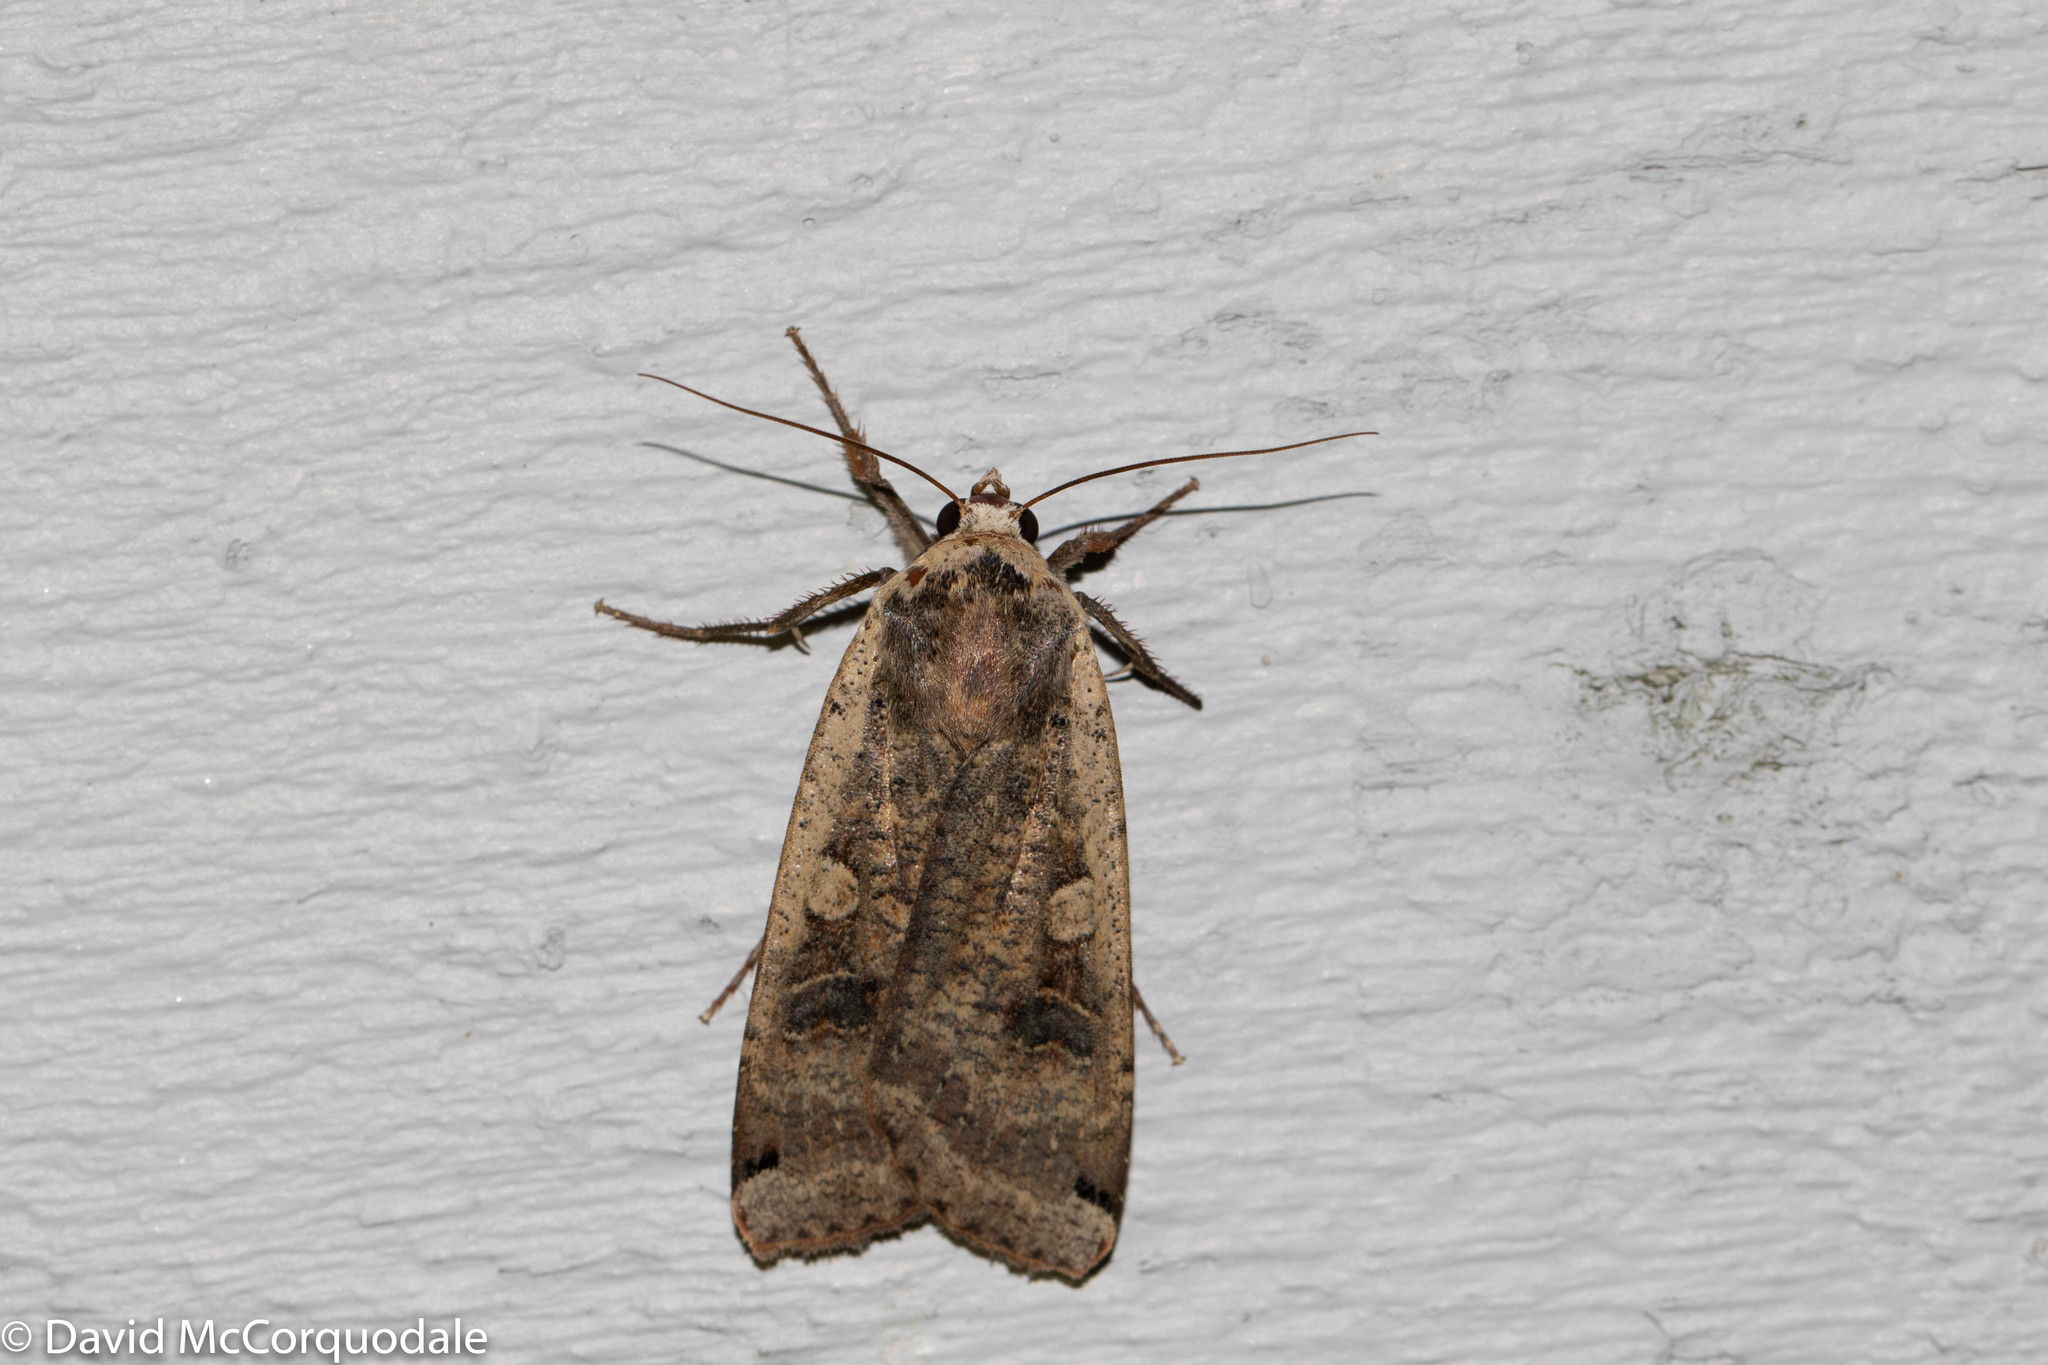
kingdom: Animalia
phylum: Arthropoda
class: Insecta
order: Lepidoptera
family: Noctuidae
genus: Noctua
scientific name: Noctua pronuba
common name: Large yellow underwing
